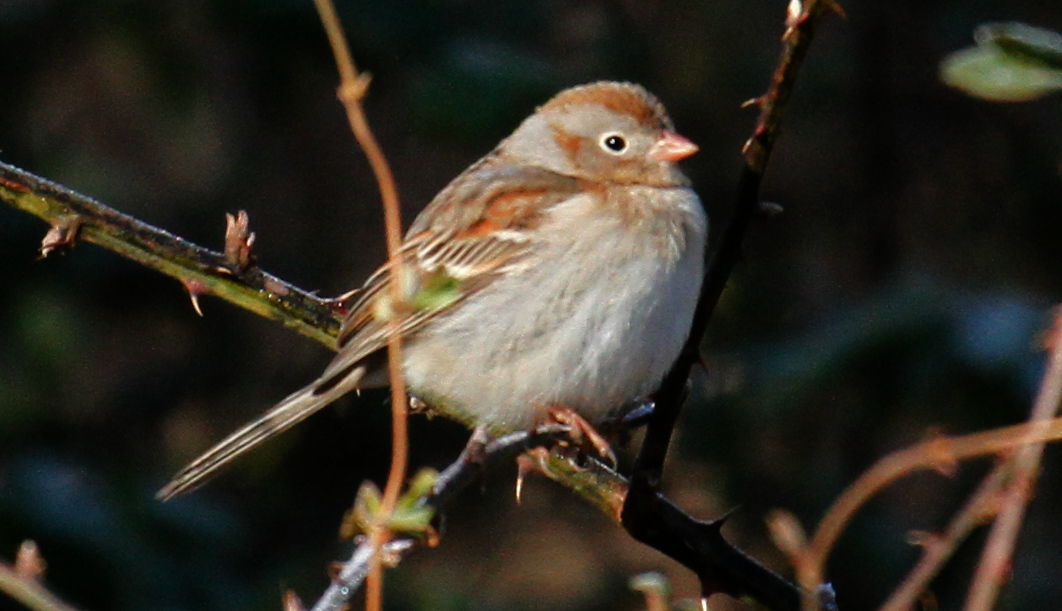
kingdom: Animalia
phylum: Chordata
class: Aves
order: Passeriformes
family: Passerellidae
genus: Spizella
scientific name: Spizella pusilla
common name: Field sparrow
